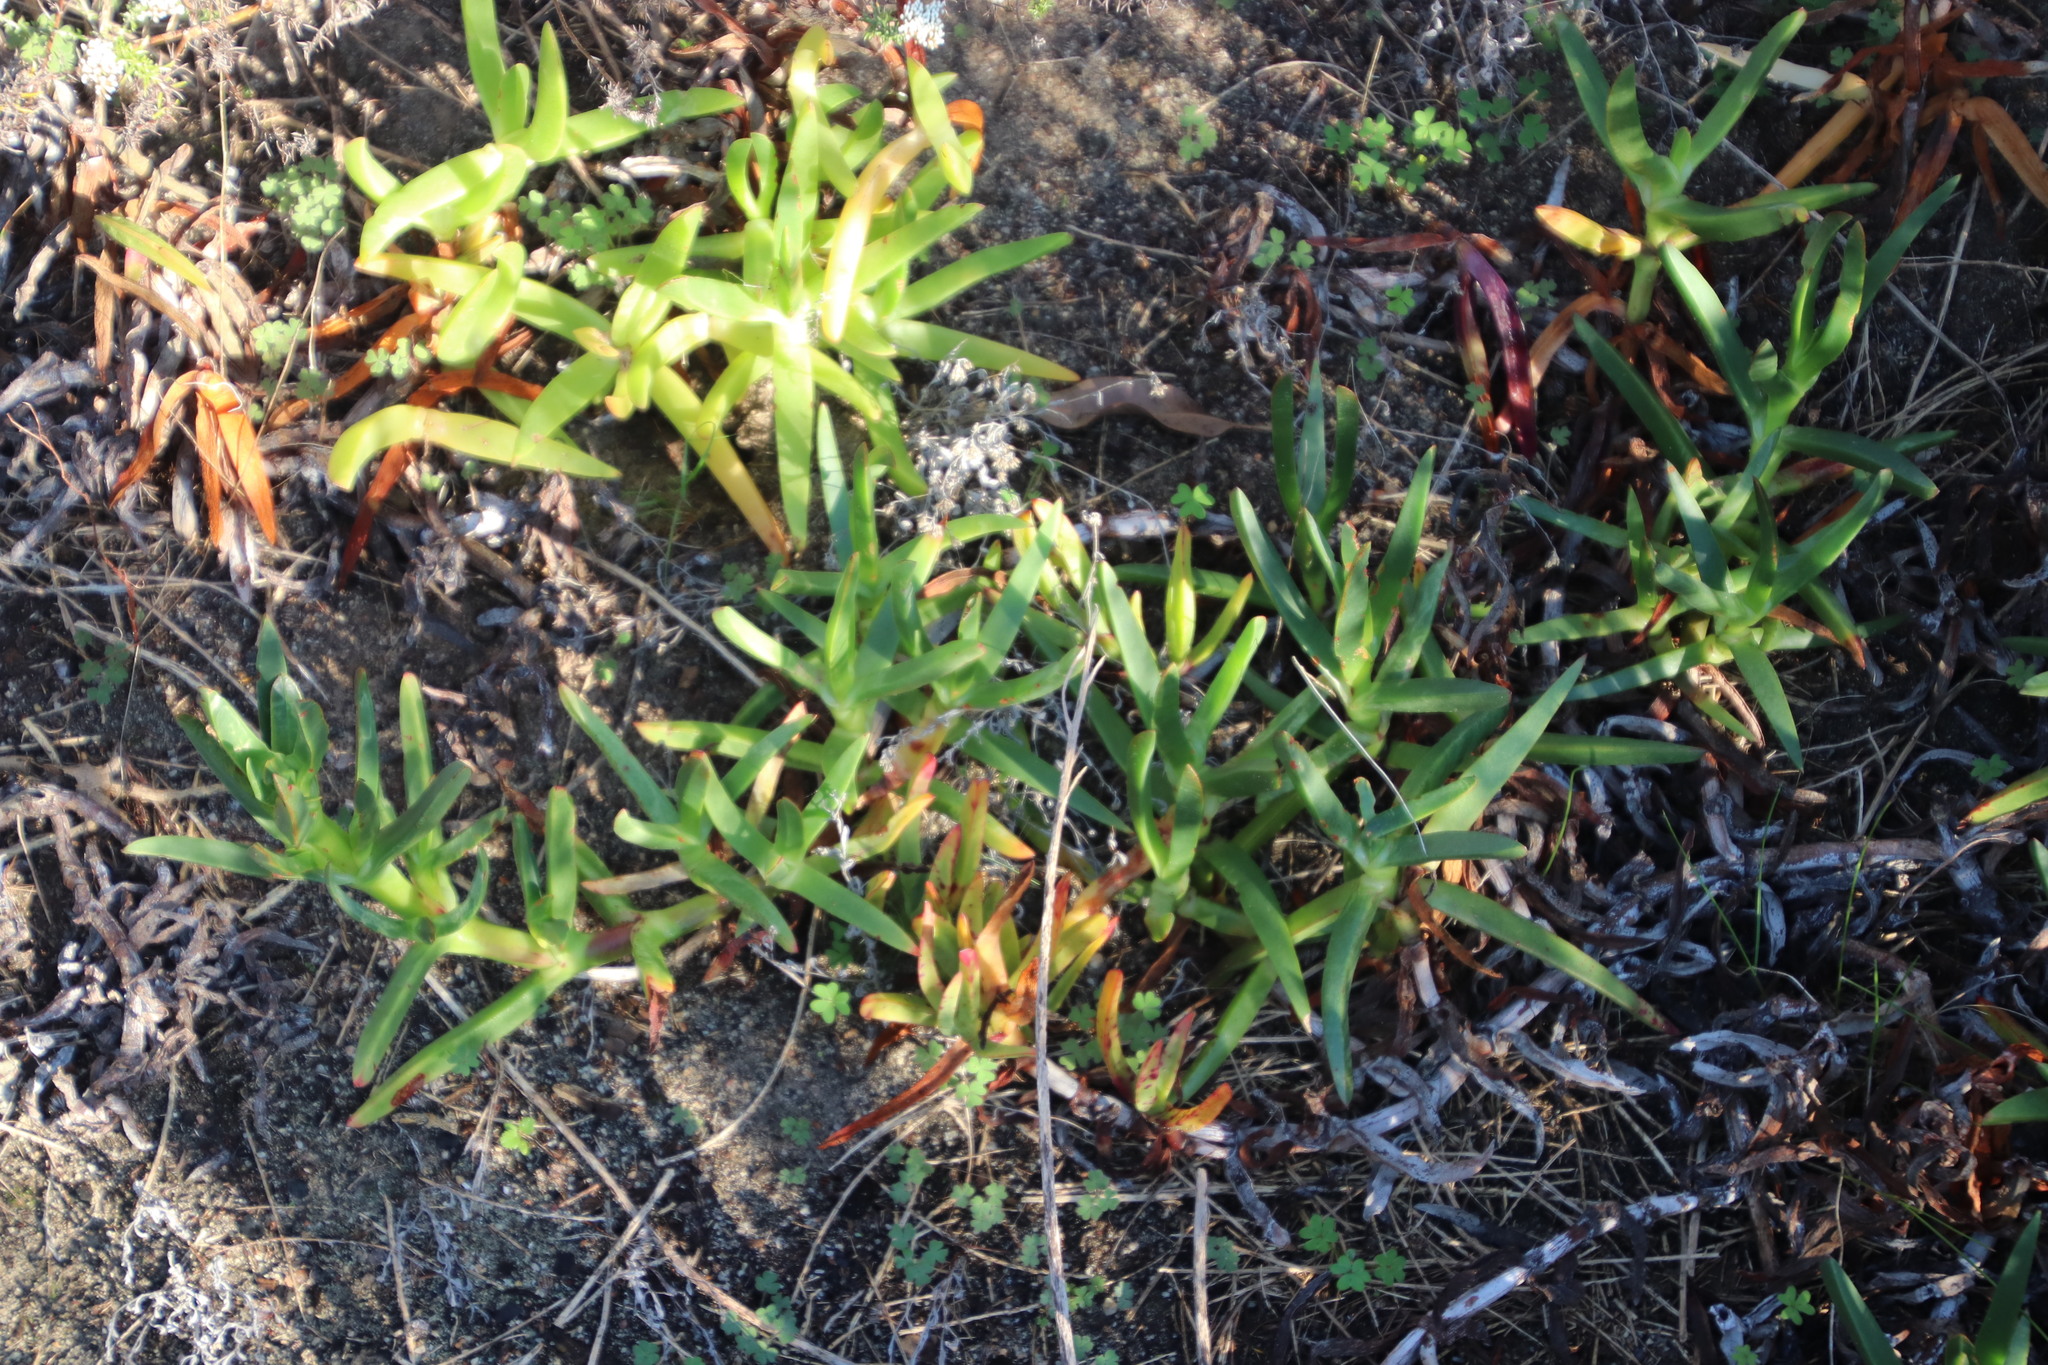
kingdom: Plantae
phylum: Tracheophyta
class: Magnoliopsida
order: Caryophyllales
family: Aizoaceae
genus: Carpobrotus
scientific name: Carpobrotus edulis
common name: Hottentot-fig
